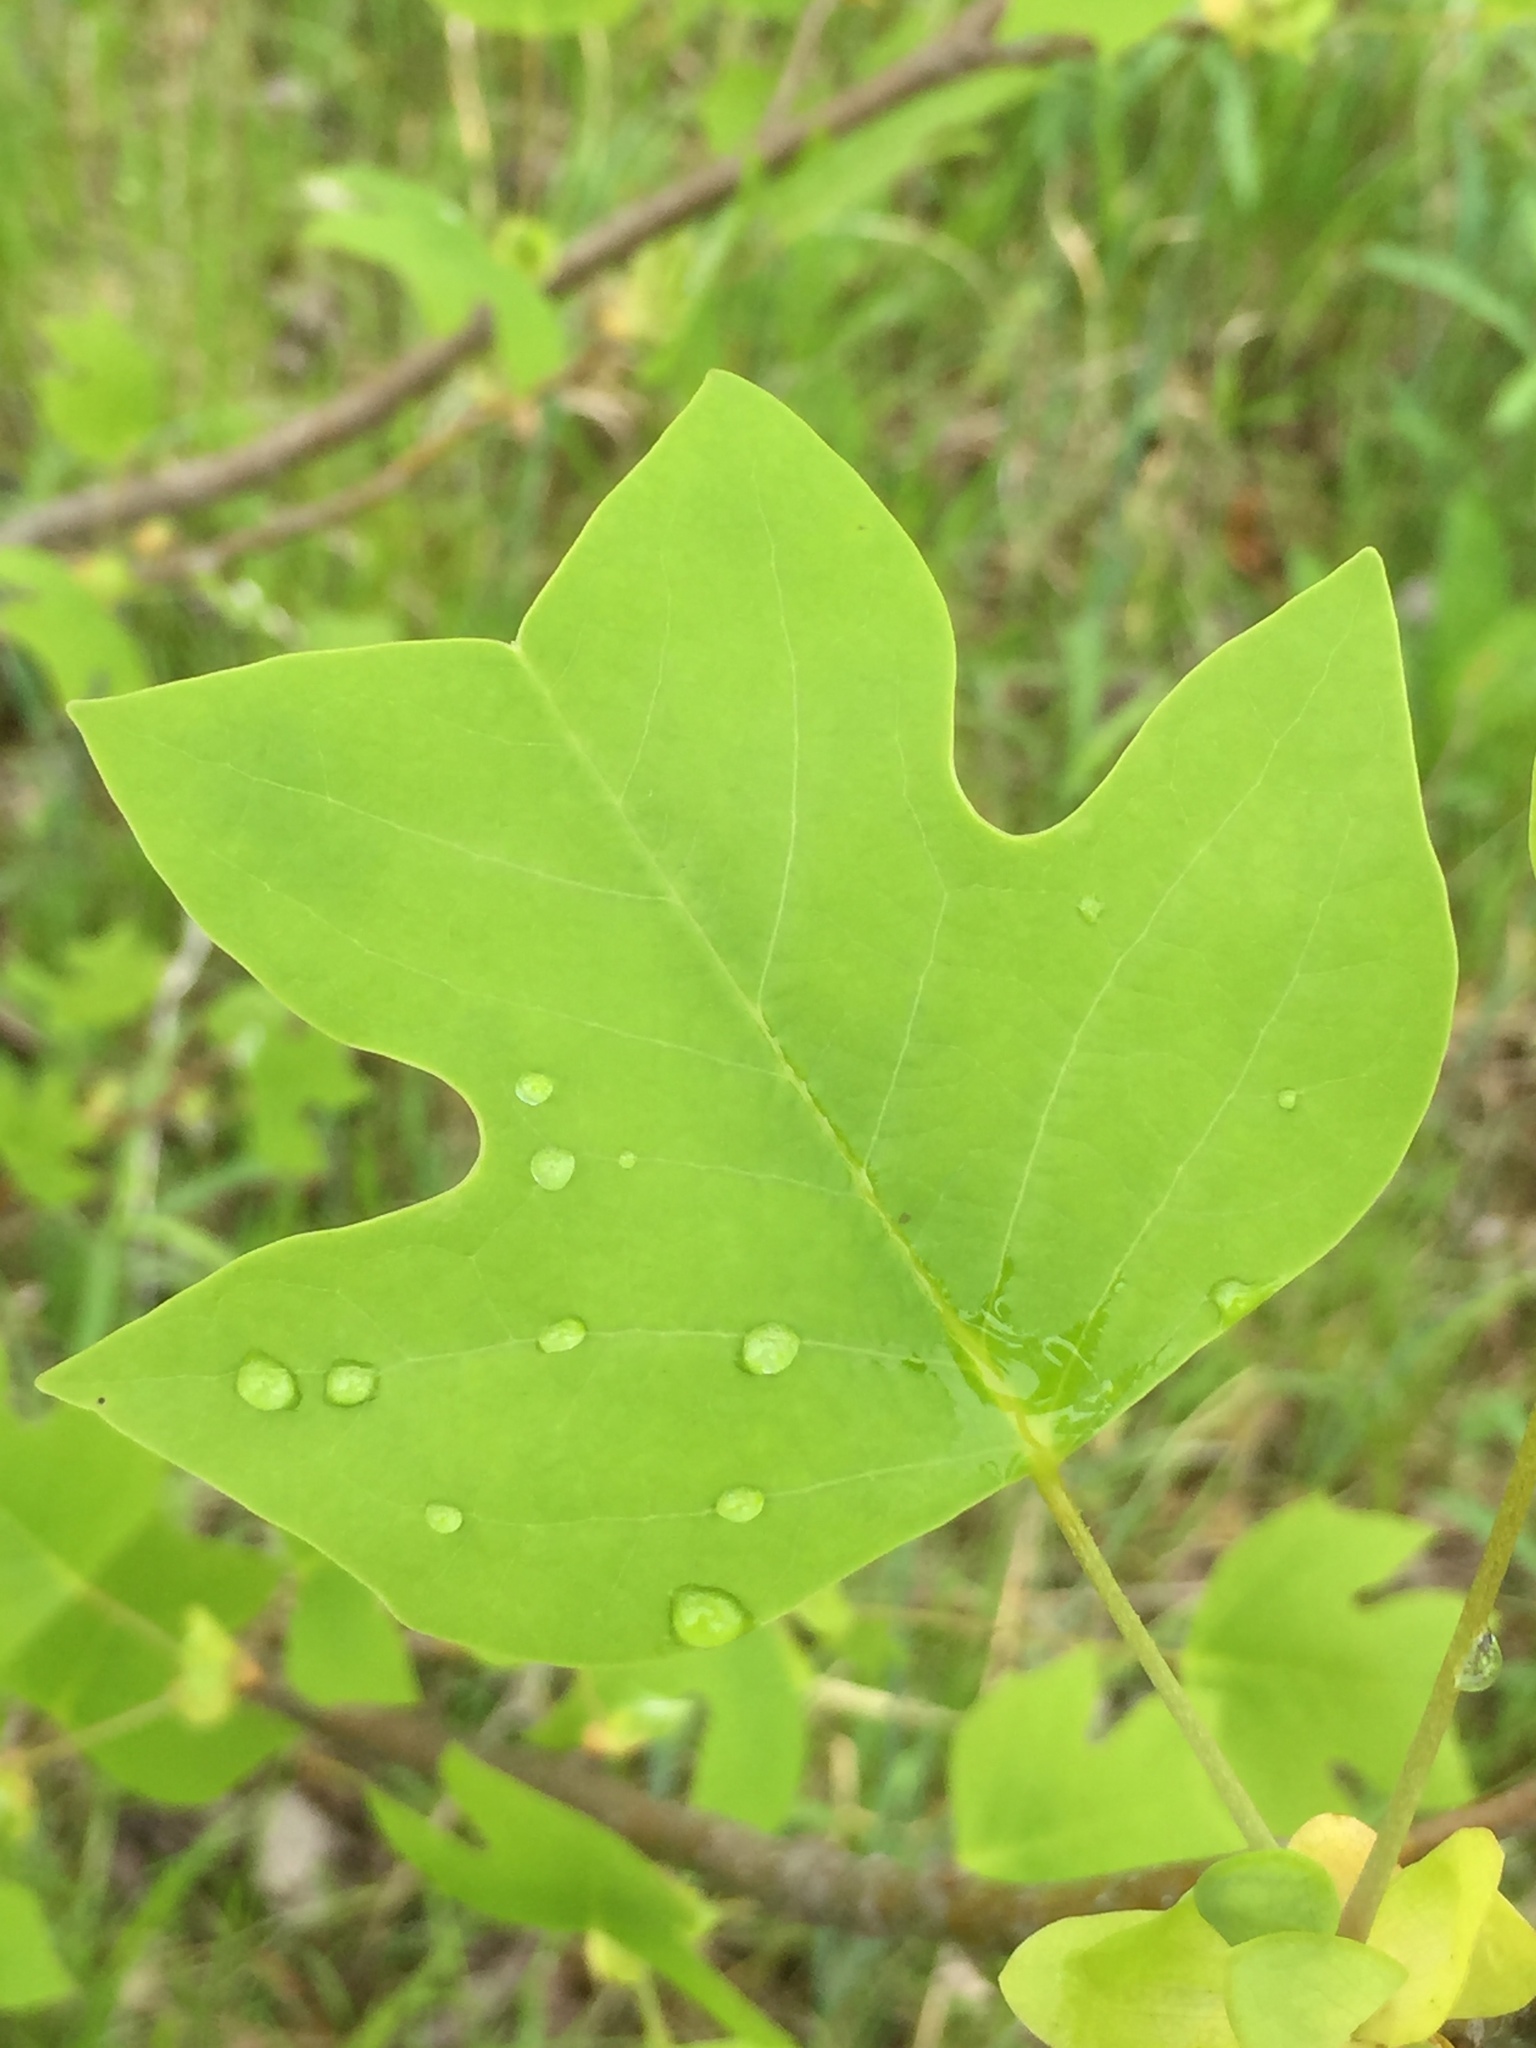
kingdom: Plantae
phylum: Tracheophyta
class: Magnoliopsida
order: Magnoliales
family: Magnoliaceae
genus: Liriodendron
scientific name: Liriodendron tulipifera
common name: Tulip tree
